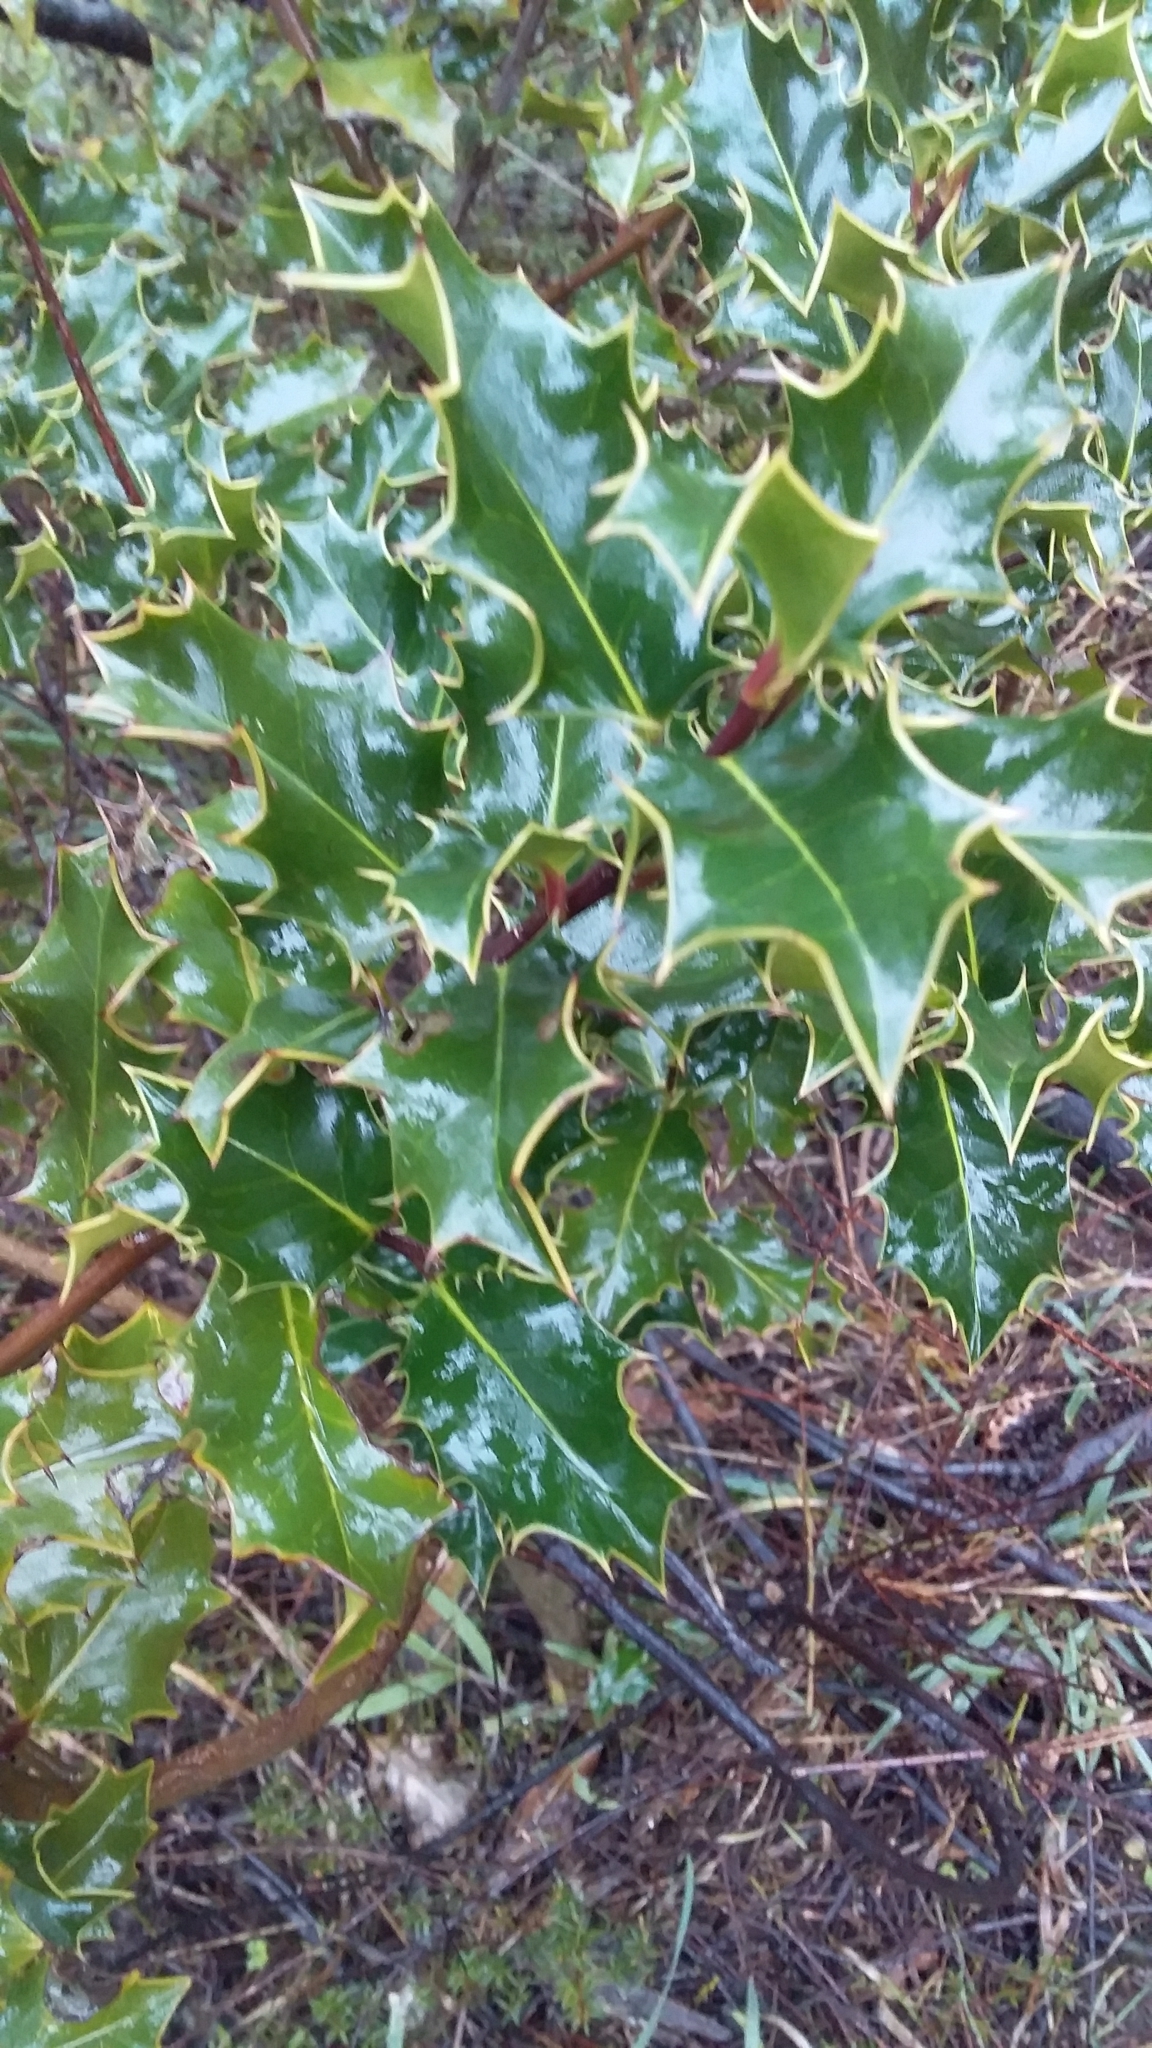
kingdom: Plantae
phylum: Tracheophyta
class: Magnoliopsida
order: Aquifoliales
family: Aquifoliaceae
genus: Ilex
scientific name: Ilex aquifolium
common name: English holly
